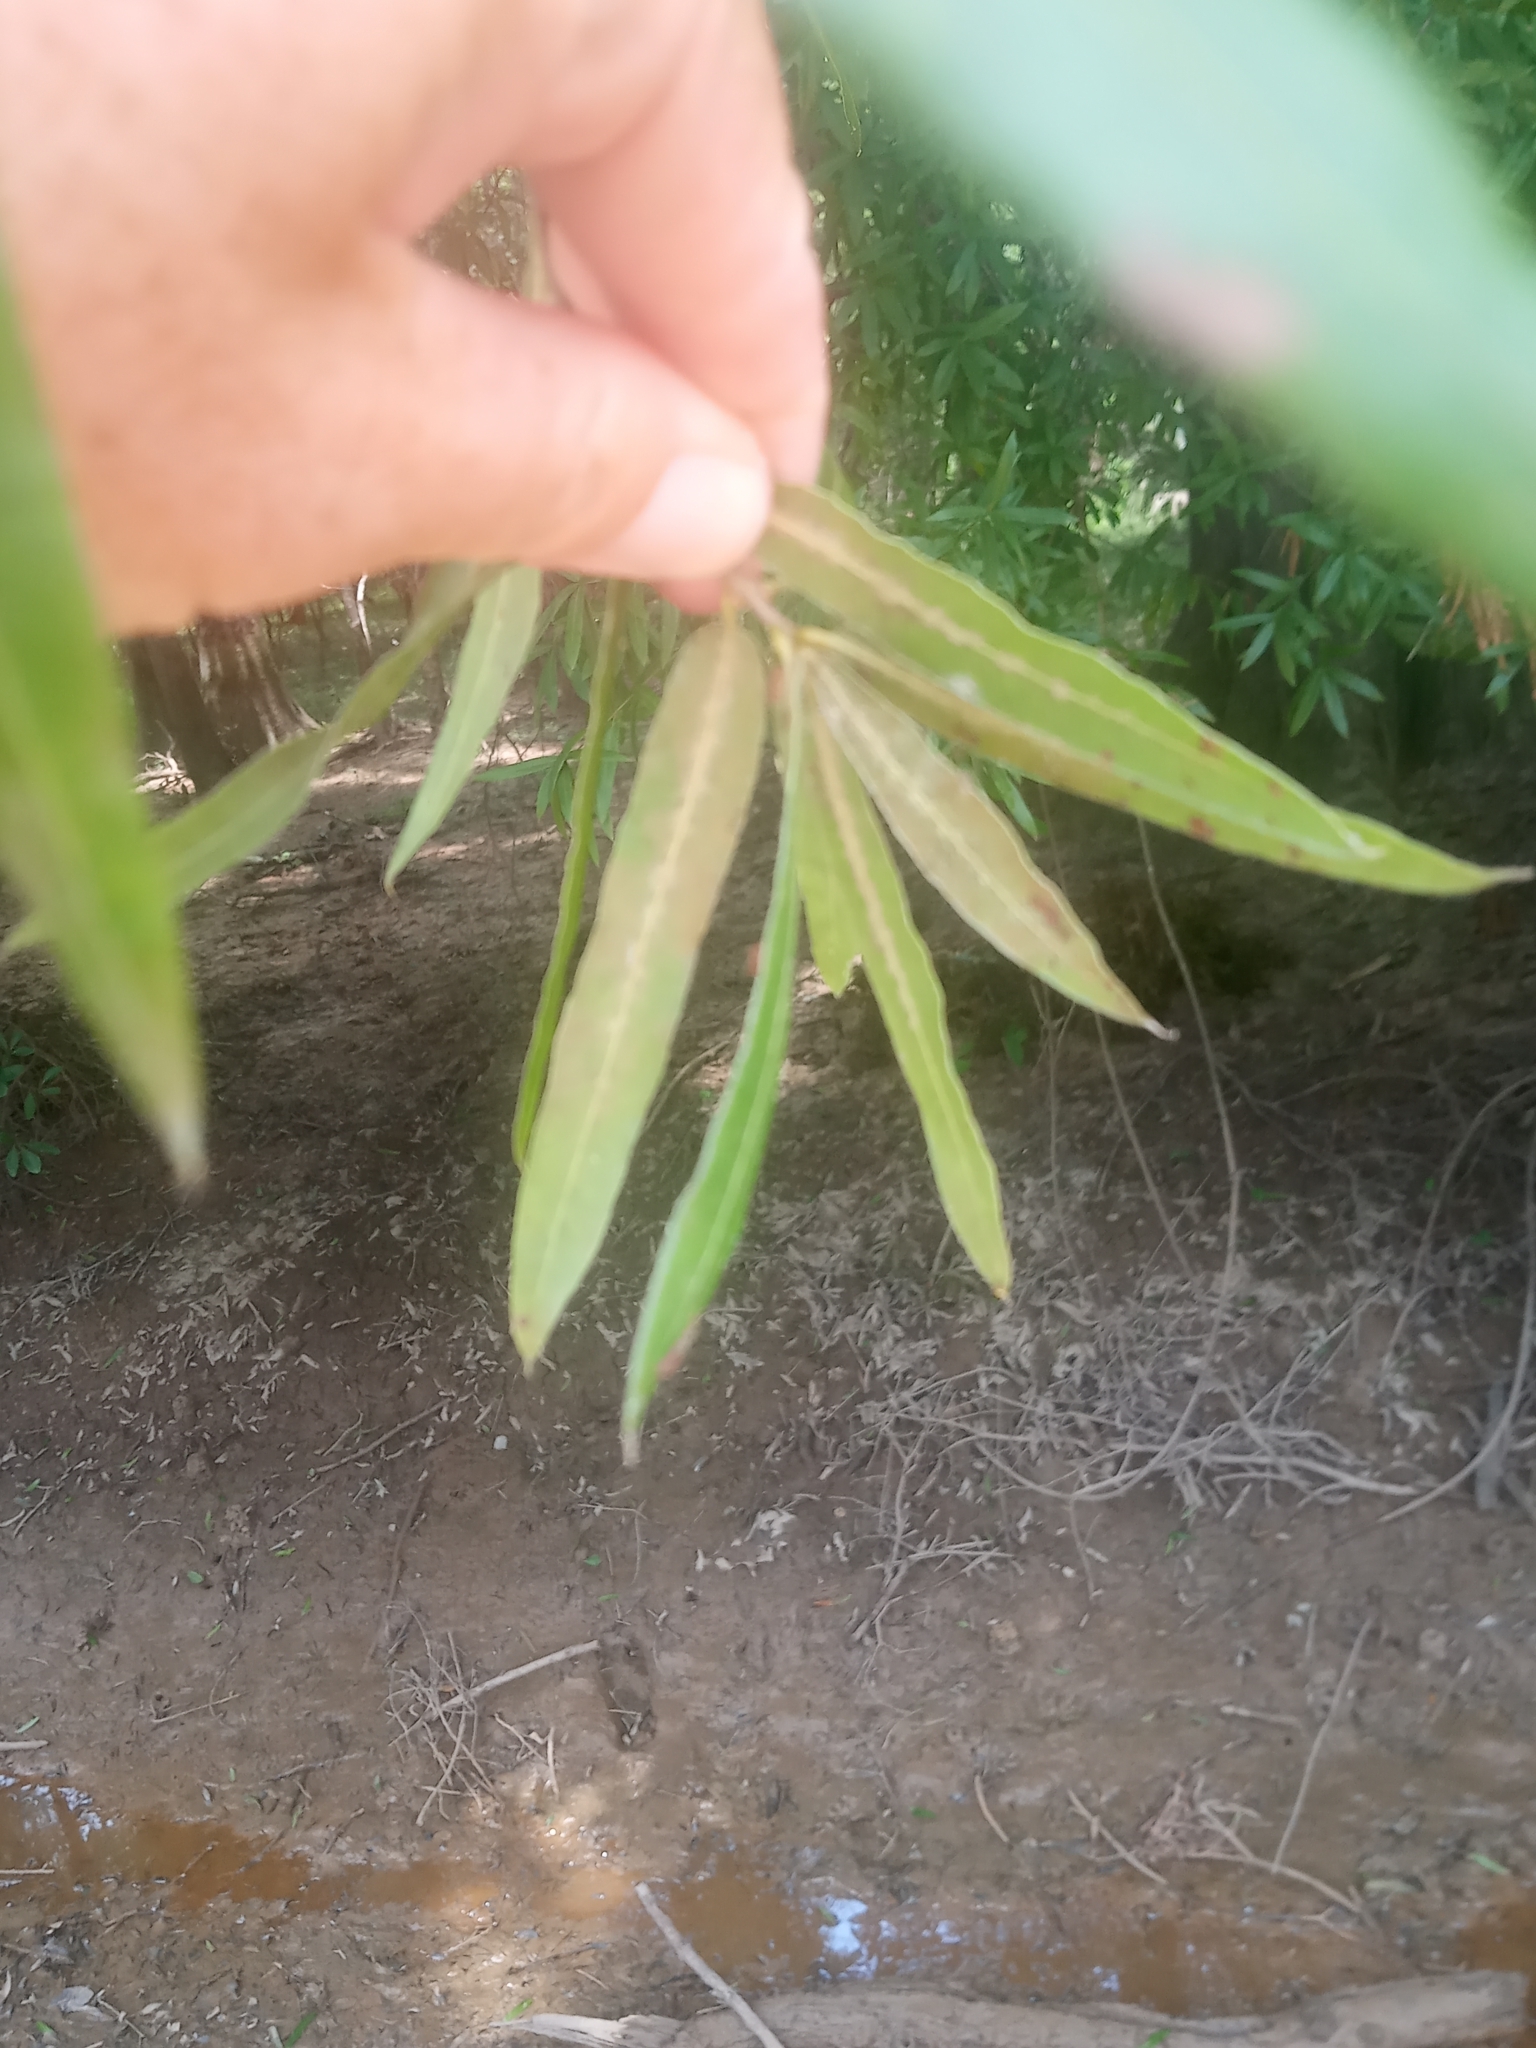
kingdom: Plantae
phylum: Tracheophyta
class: Magnoliopsida
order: Fagales
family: Fagaceae
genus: Quercus
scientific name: Quercus phellos
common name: Willow oak
